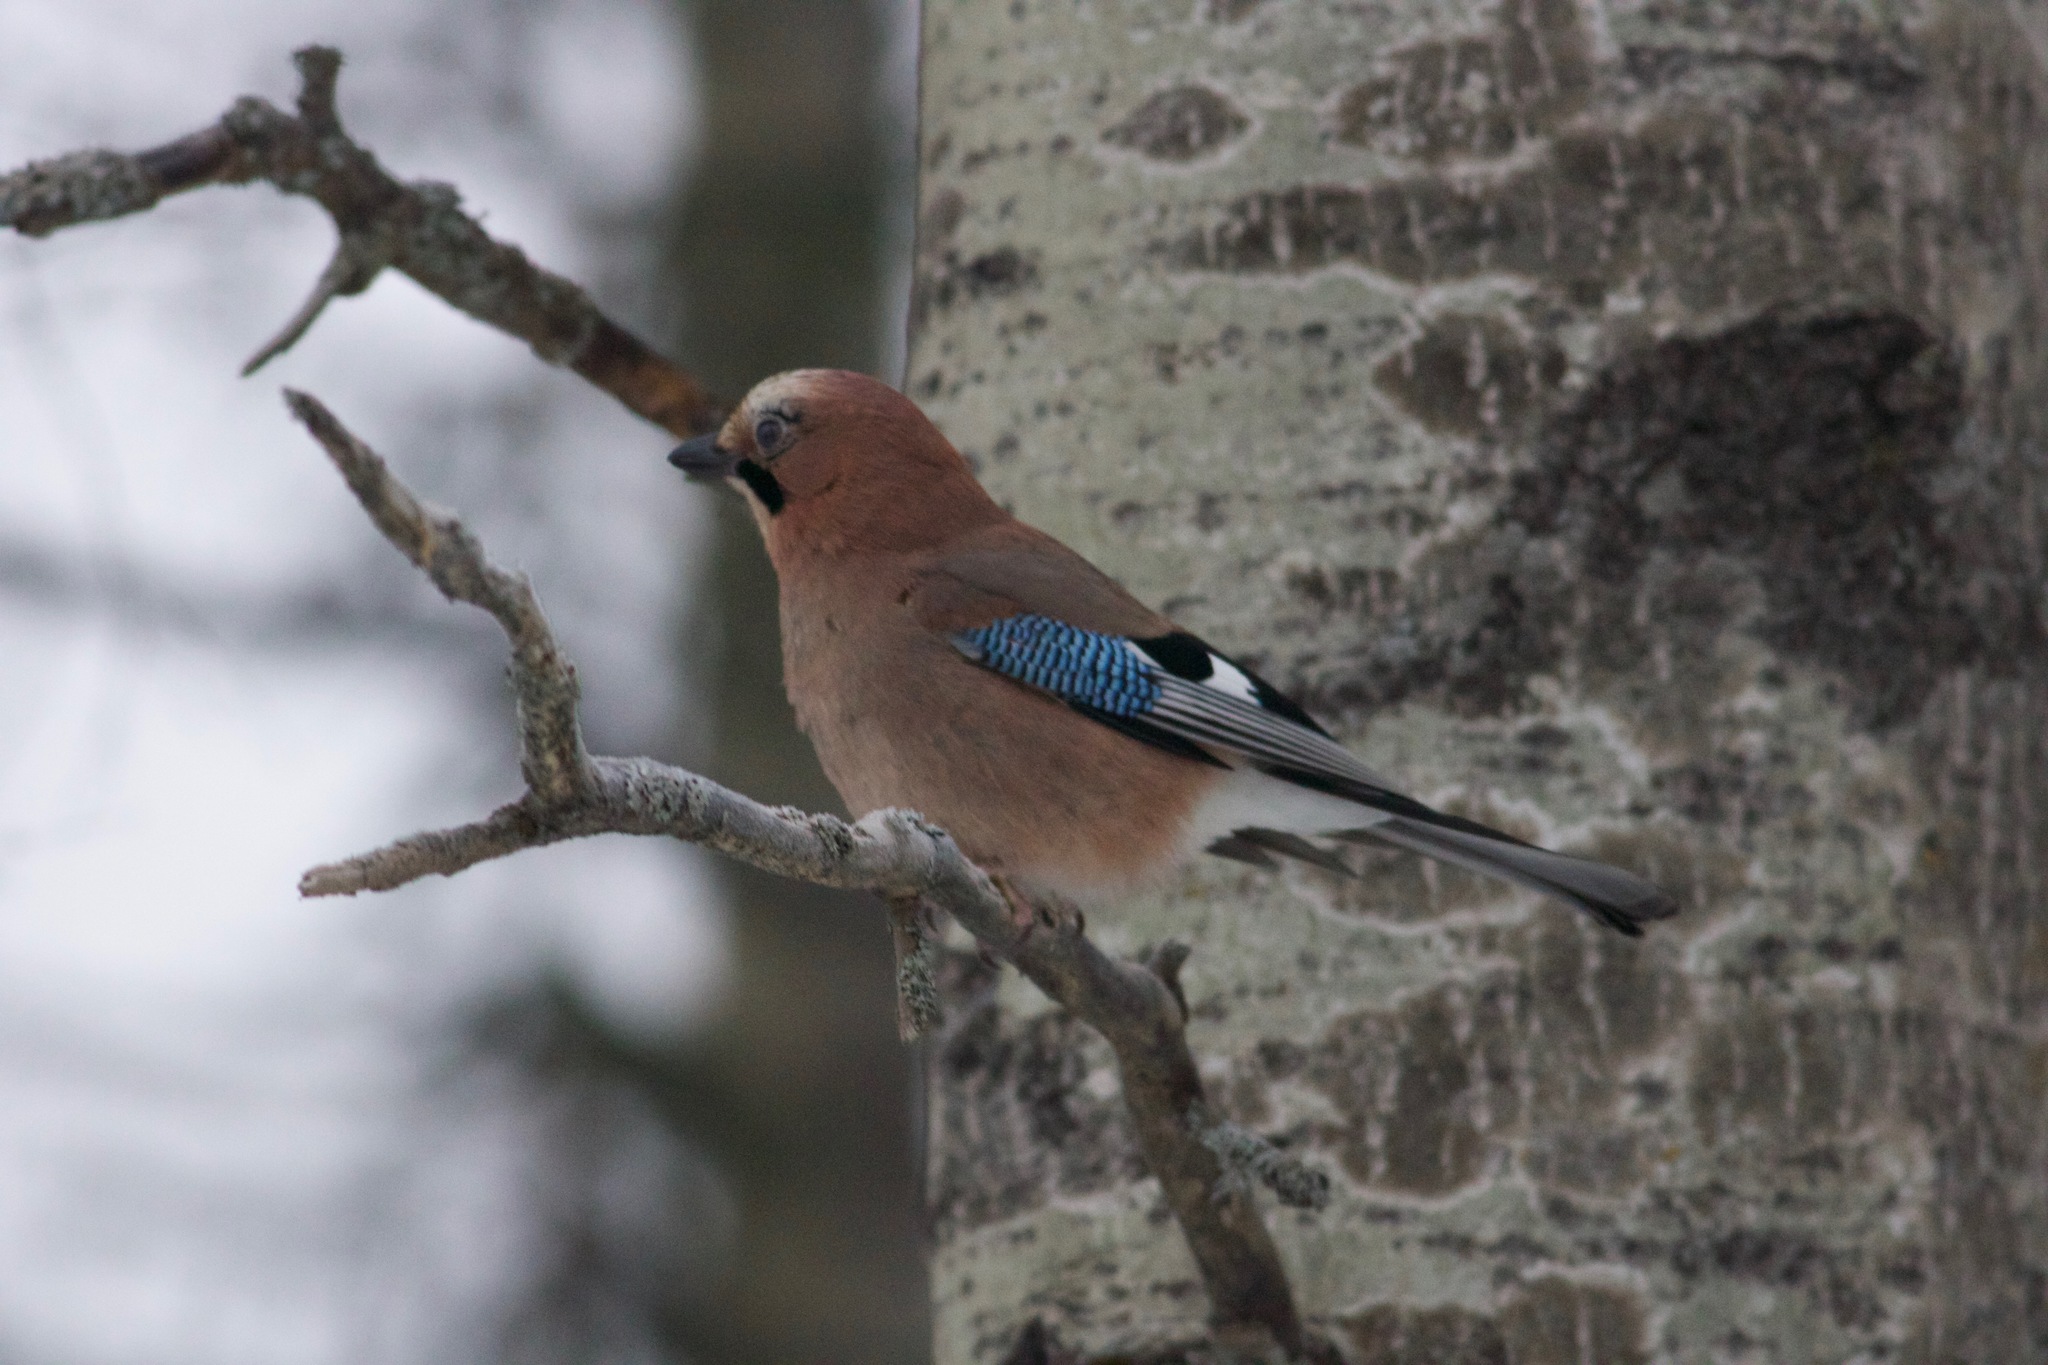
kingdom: Animalia
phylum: Chordata
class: Aves
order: Passeriformes
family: Corvidae
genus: Garrulus
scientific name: Garrulus glandarius
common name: Eurasian jay
